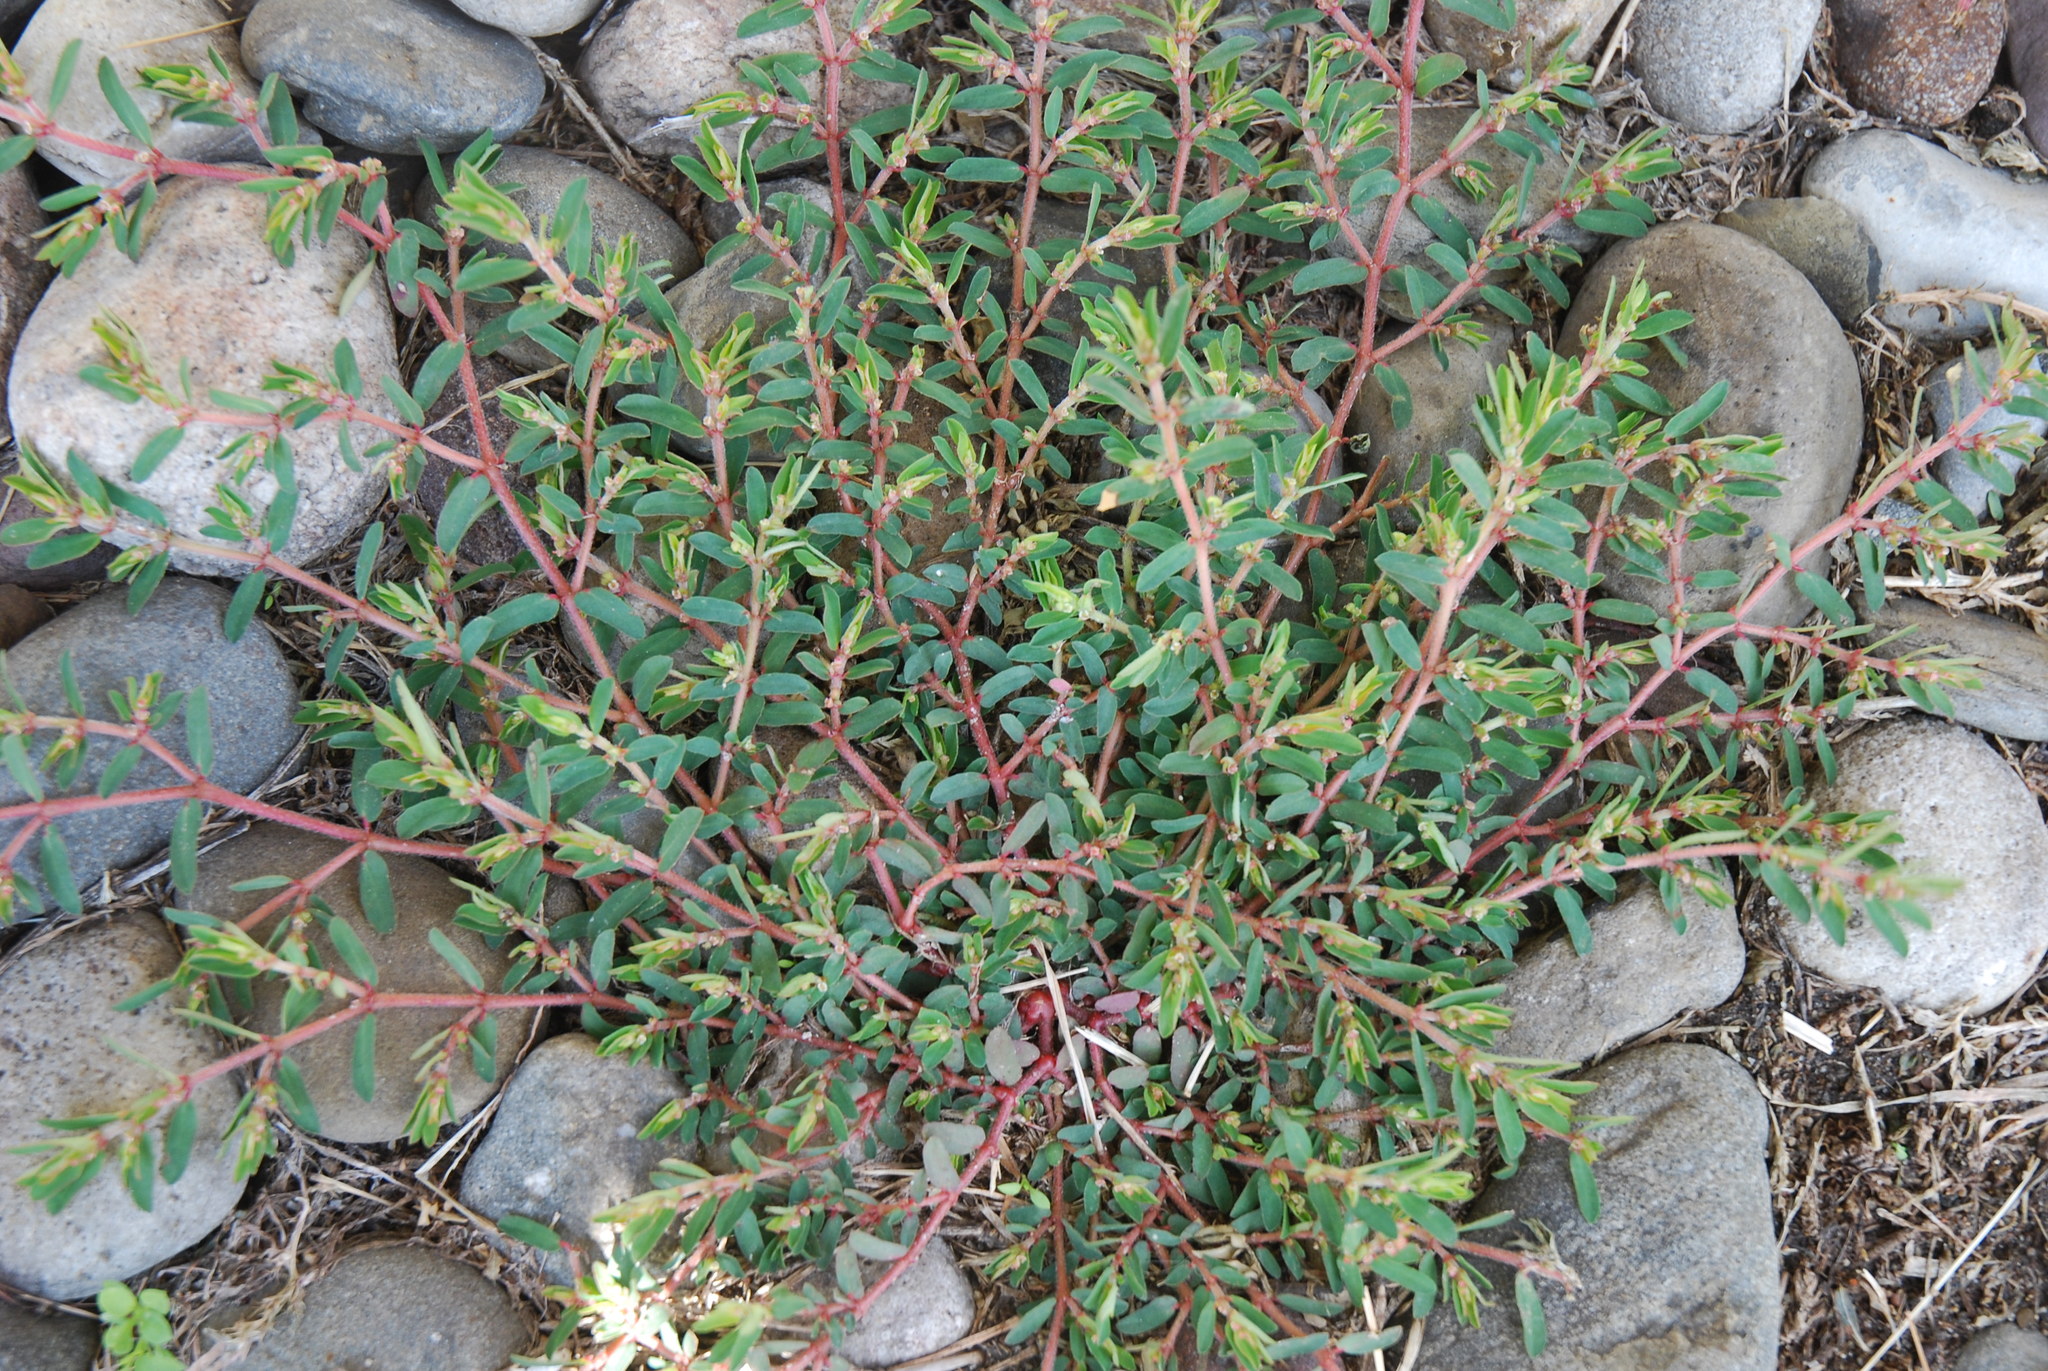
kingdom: Plantae
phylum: Tracheophyta
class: Magnoliopsida
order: Malpighiales
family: Euphorbiaceae
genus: Euphorbia
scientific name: Euphorbia maculata
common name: Spotted spurge
